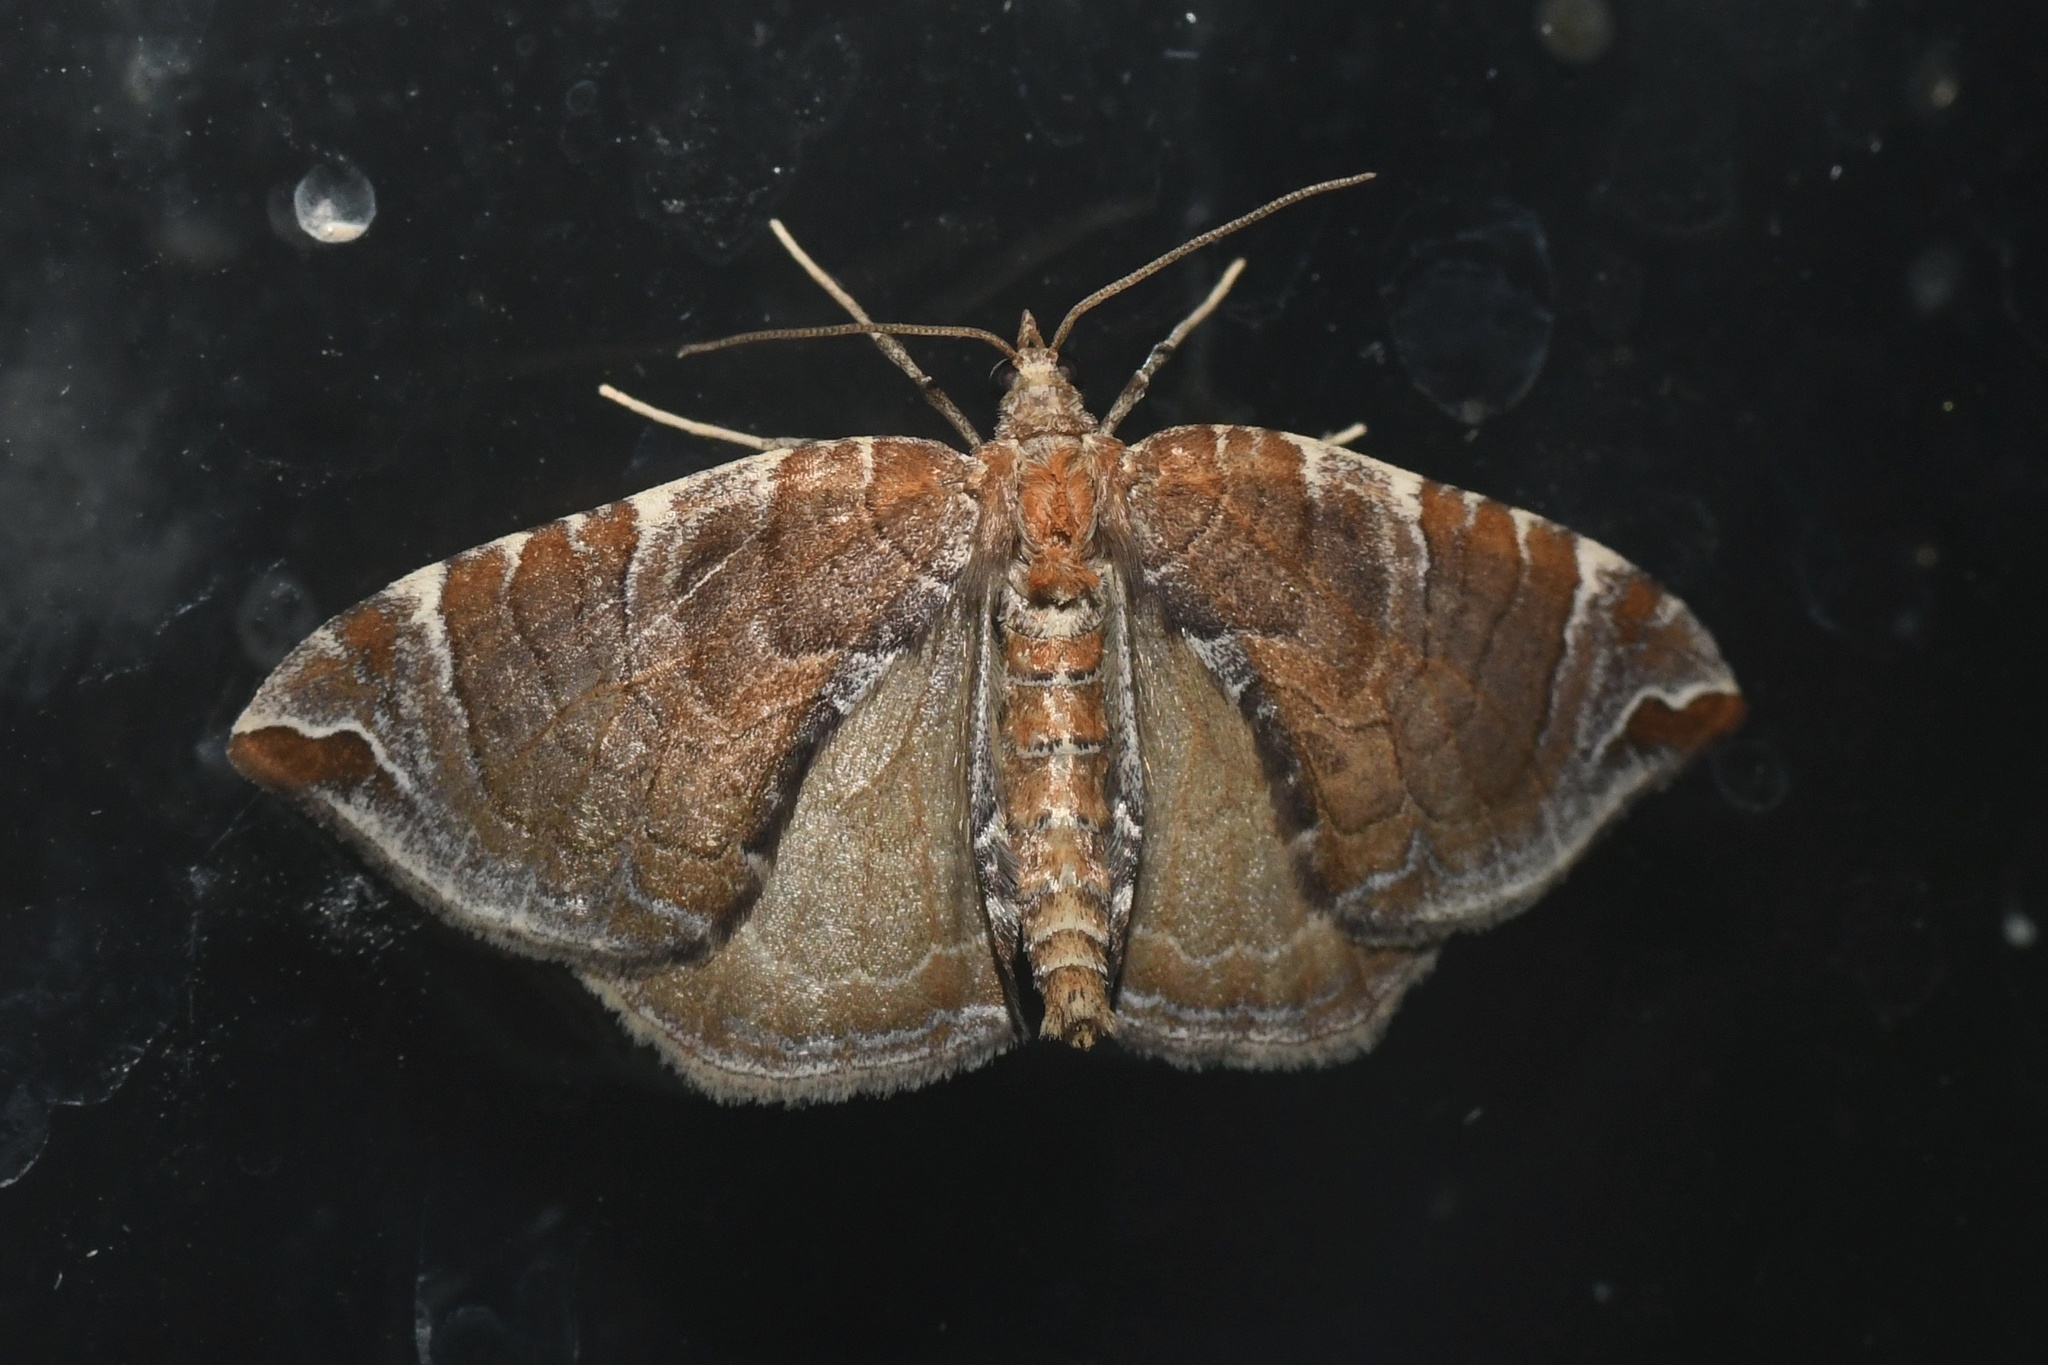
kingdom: Animalia
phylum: Arthropoda
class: Insecta
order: Lepidoptera
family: Geometridae
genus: Eulithis
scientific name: Eulithis molliculata
